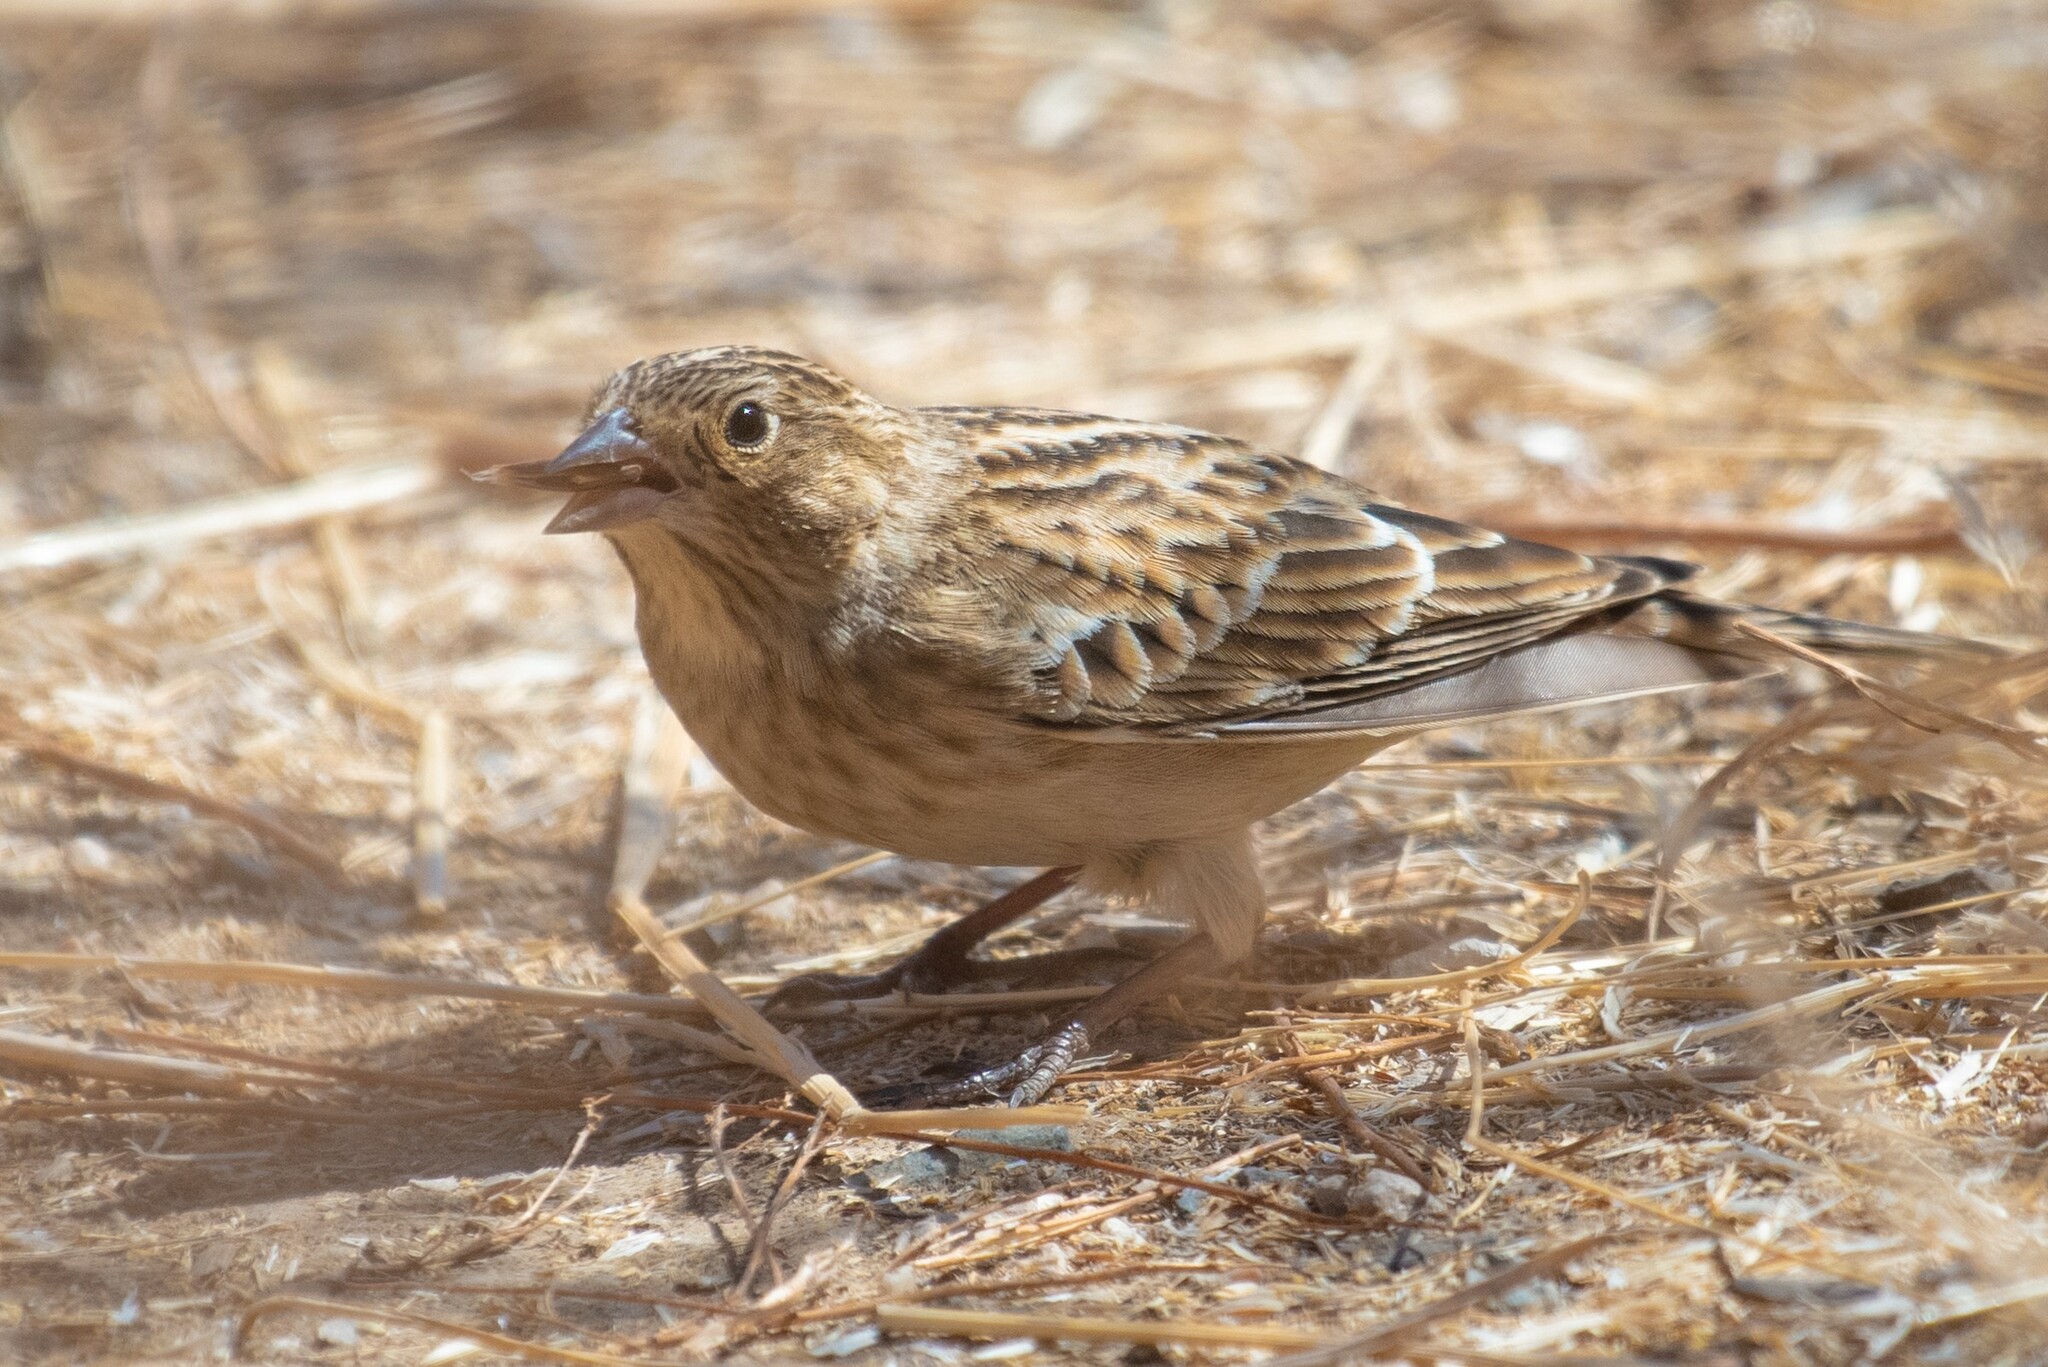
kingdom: Animalia
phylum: Chordata
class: Aves
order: Passeriformes
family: Calcariidae
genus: Calcarius
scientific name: Calcarius ornatus
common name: Chestnut-collared longspur
